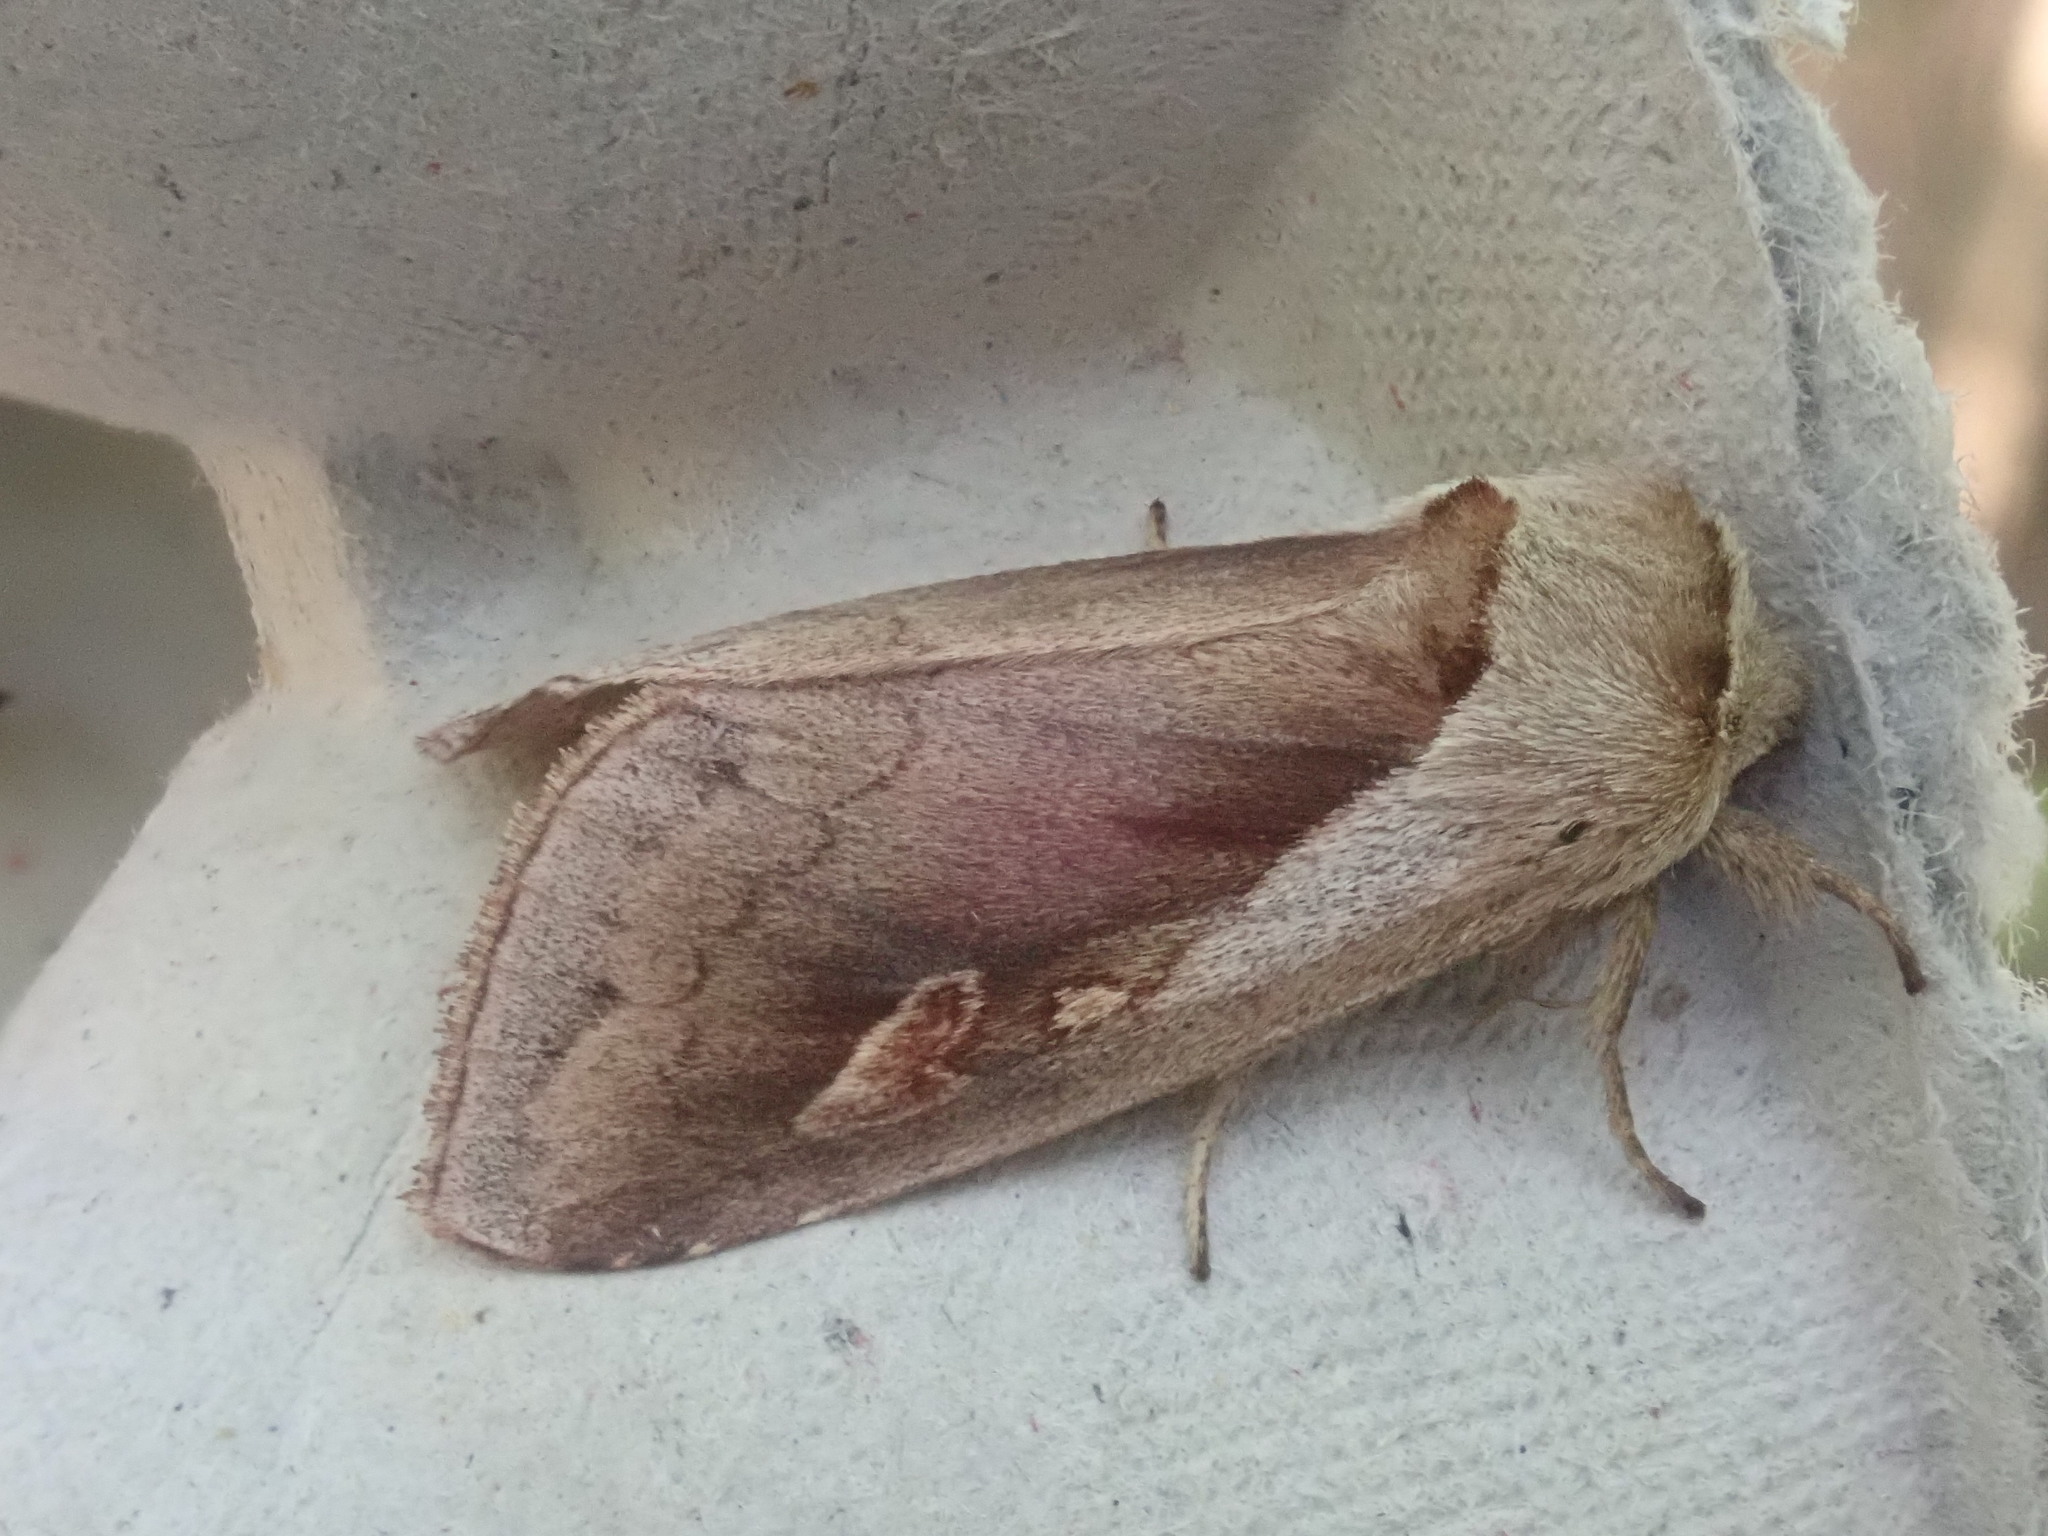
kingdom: Animalia
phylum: Arthropoda
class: Insecta
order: Lepidoptera
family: Noctuidae
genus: Bellura
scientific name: Bellura obliqua
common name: Cattail borer moth
